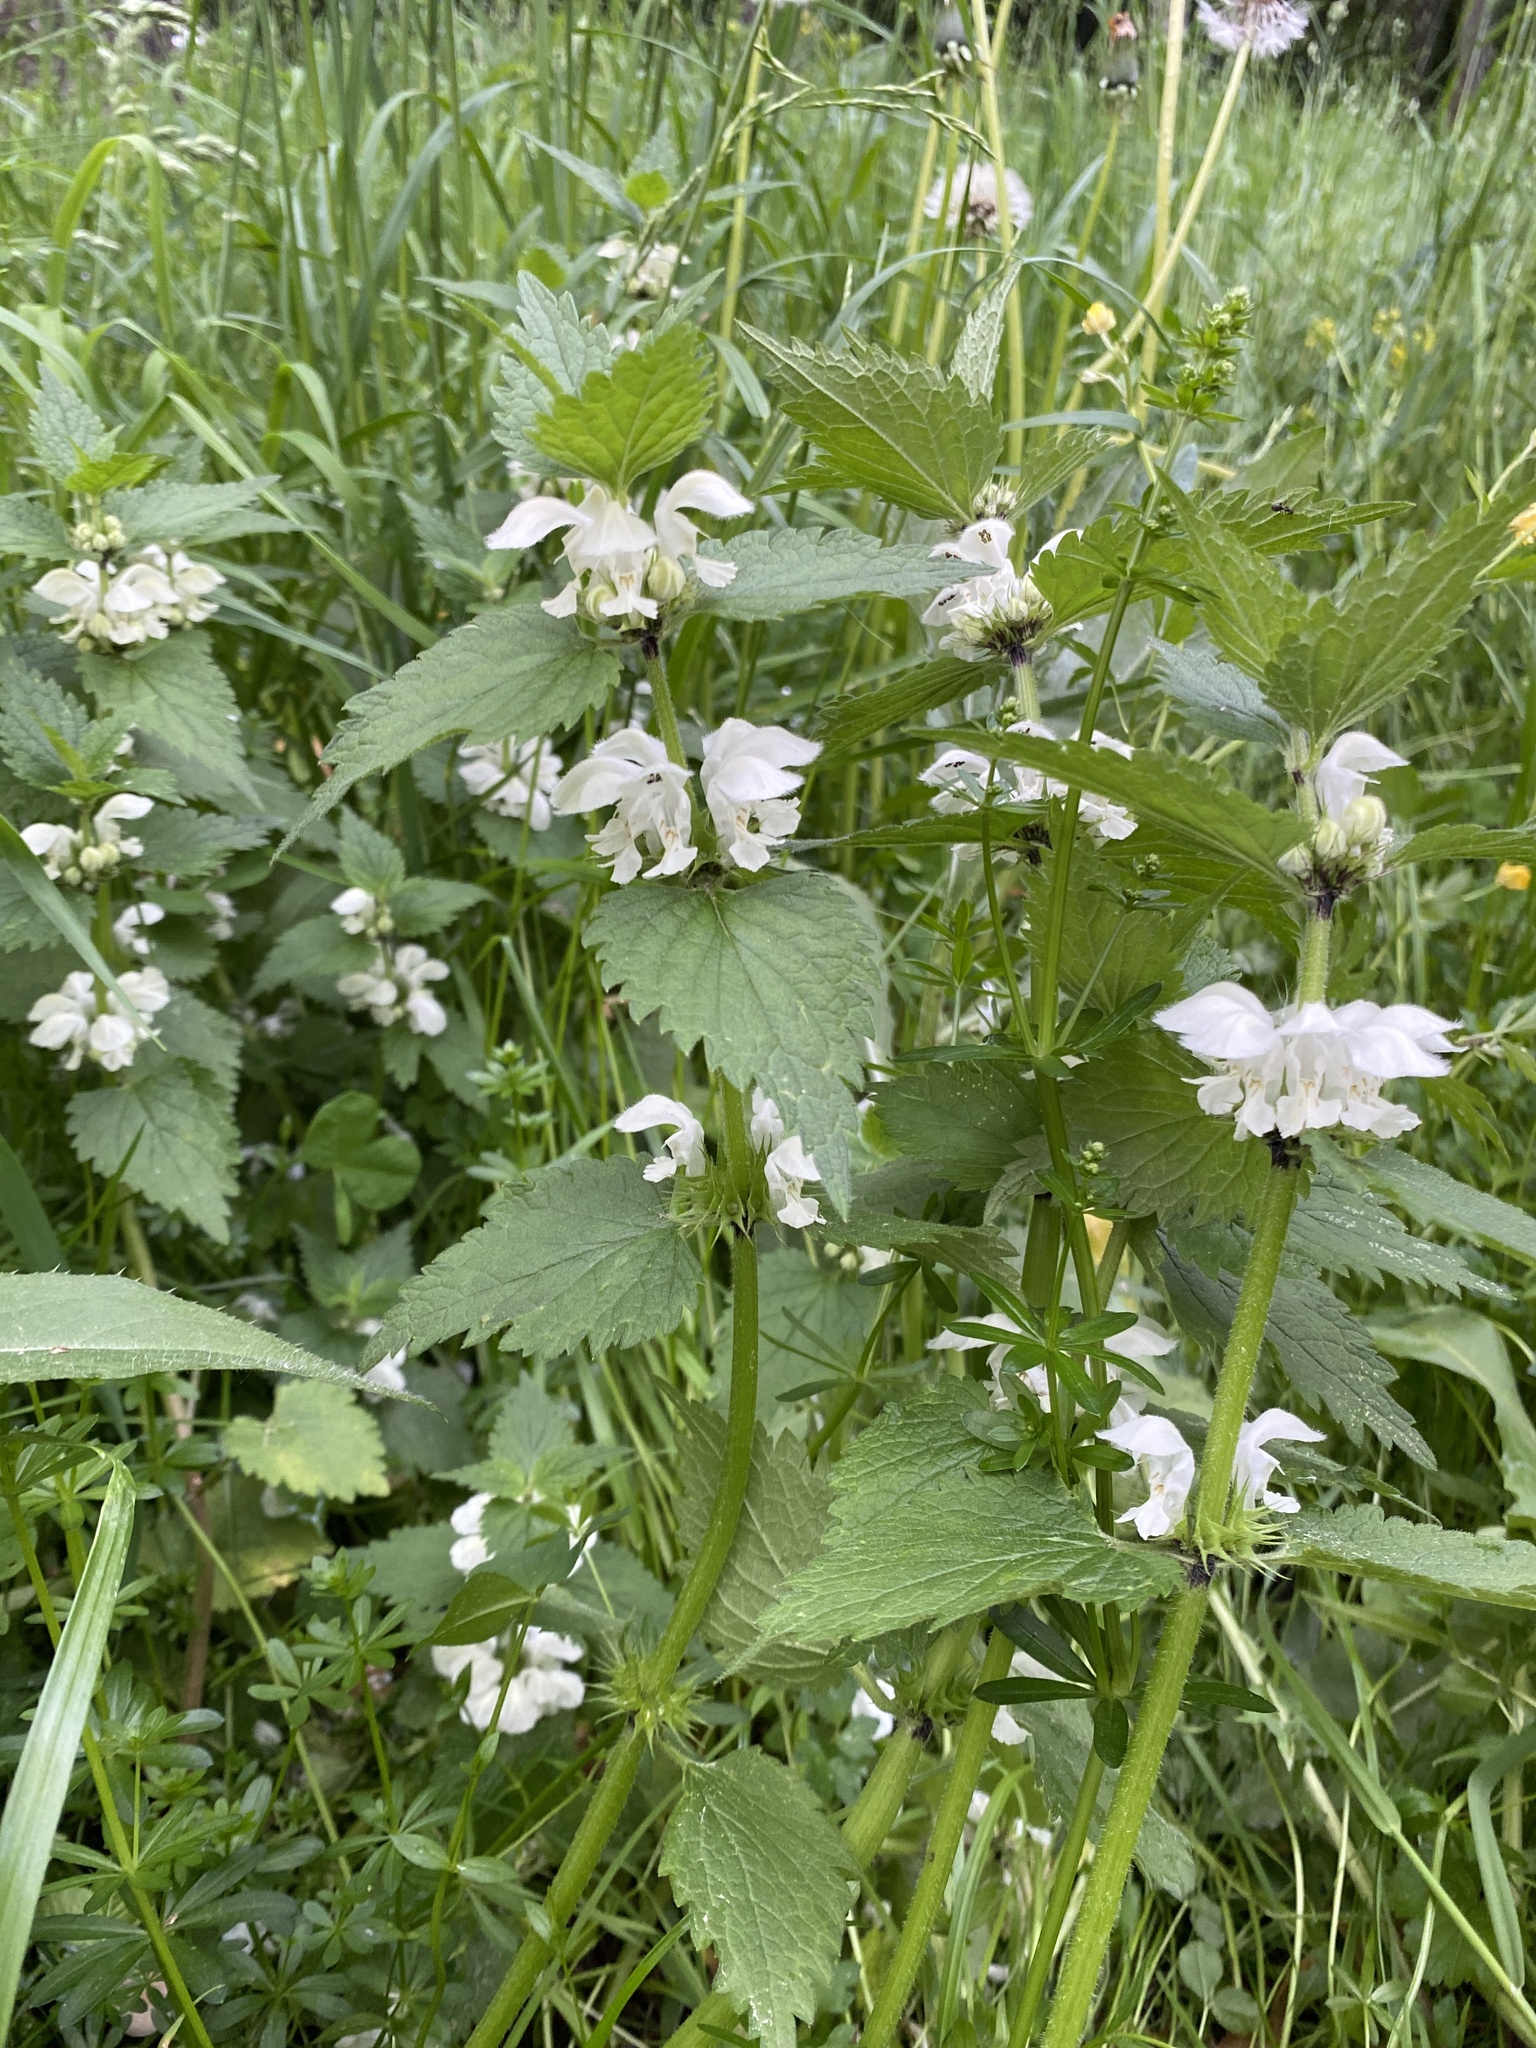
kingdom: Plantae
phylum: Tracheophyta
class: Magnoliopsida
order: Lamiales
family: Lamiaceae
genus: Lamium
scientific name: Lamium album
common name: White dead-nettle
